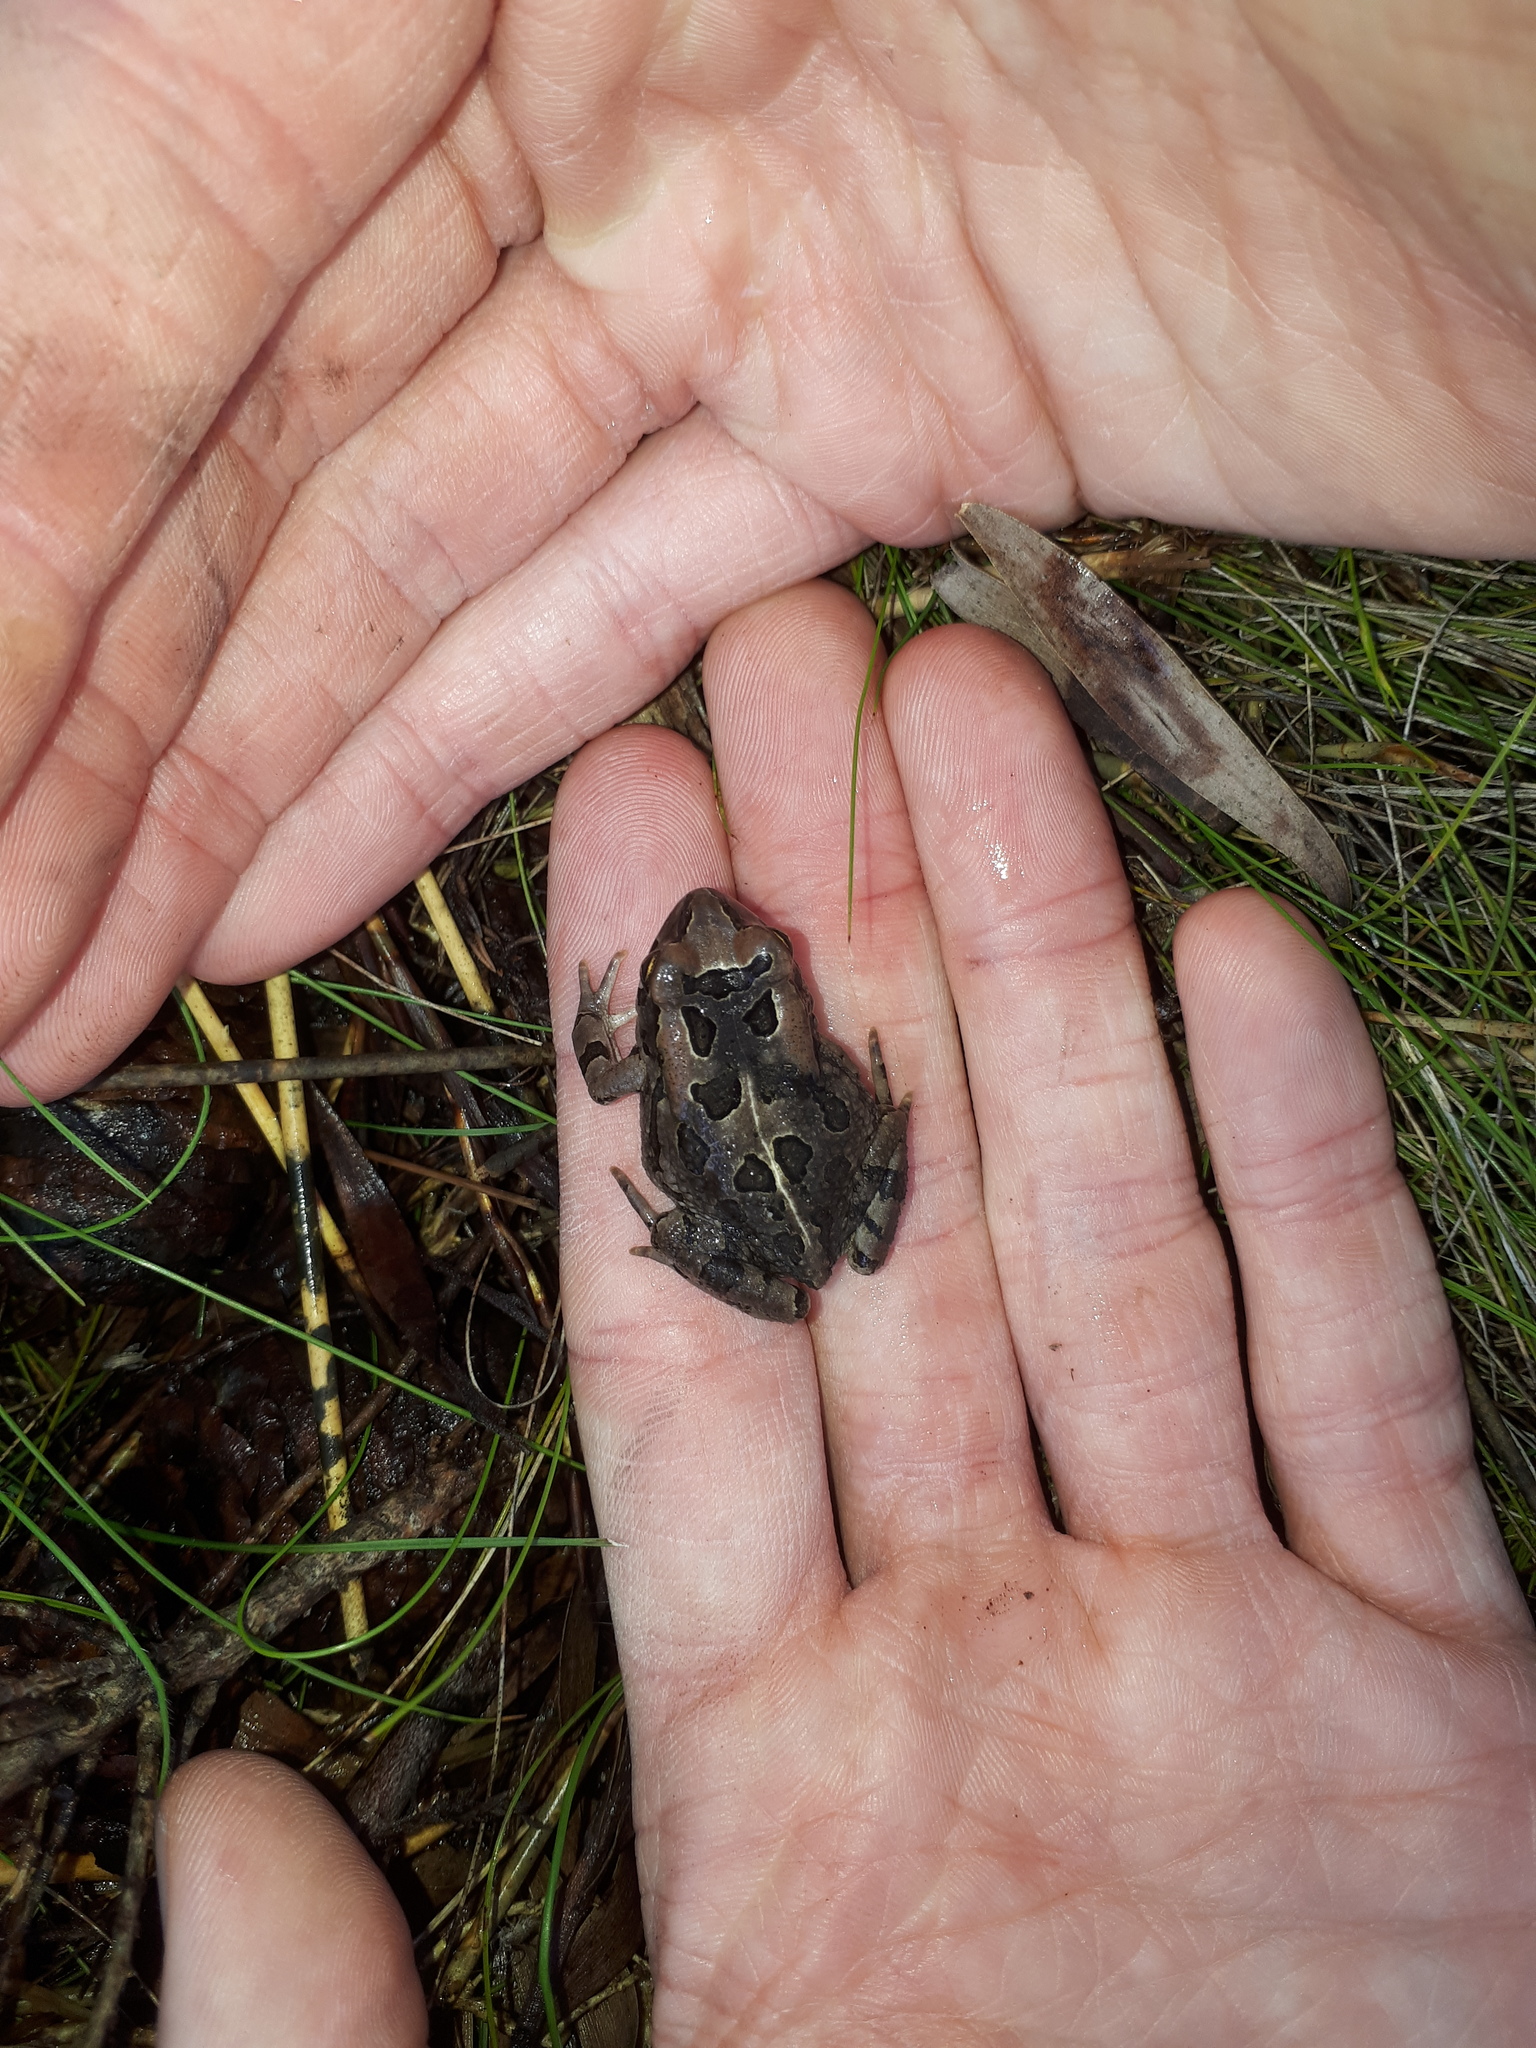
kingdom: Animalia
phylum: Chordata
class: Amphibia
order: Anura
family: Bufonidae
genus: Sclerophrys
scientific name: Sclerophrys capensis
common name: Ranger’s toad
